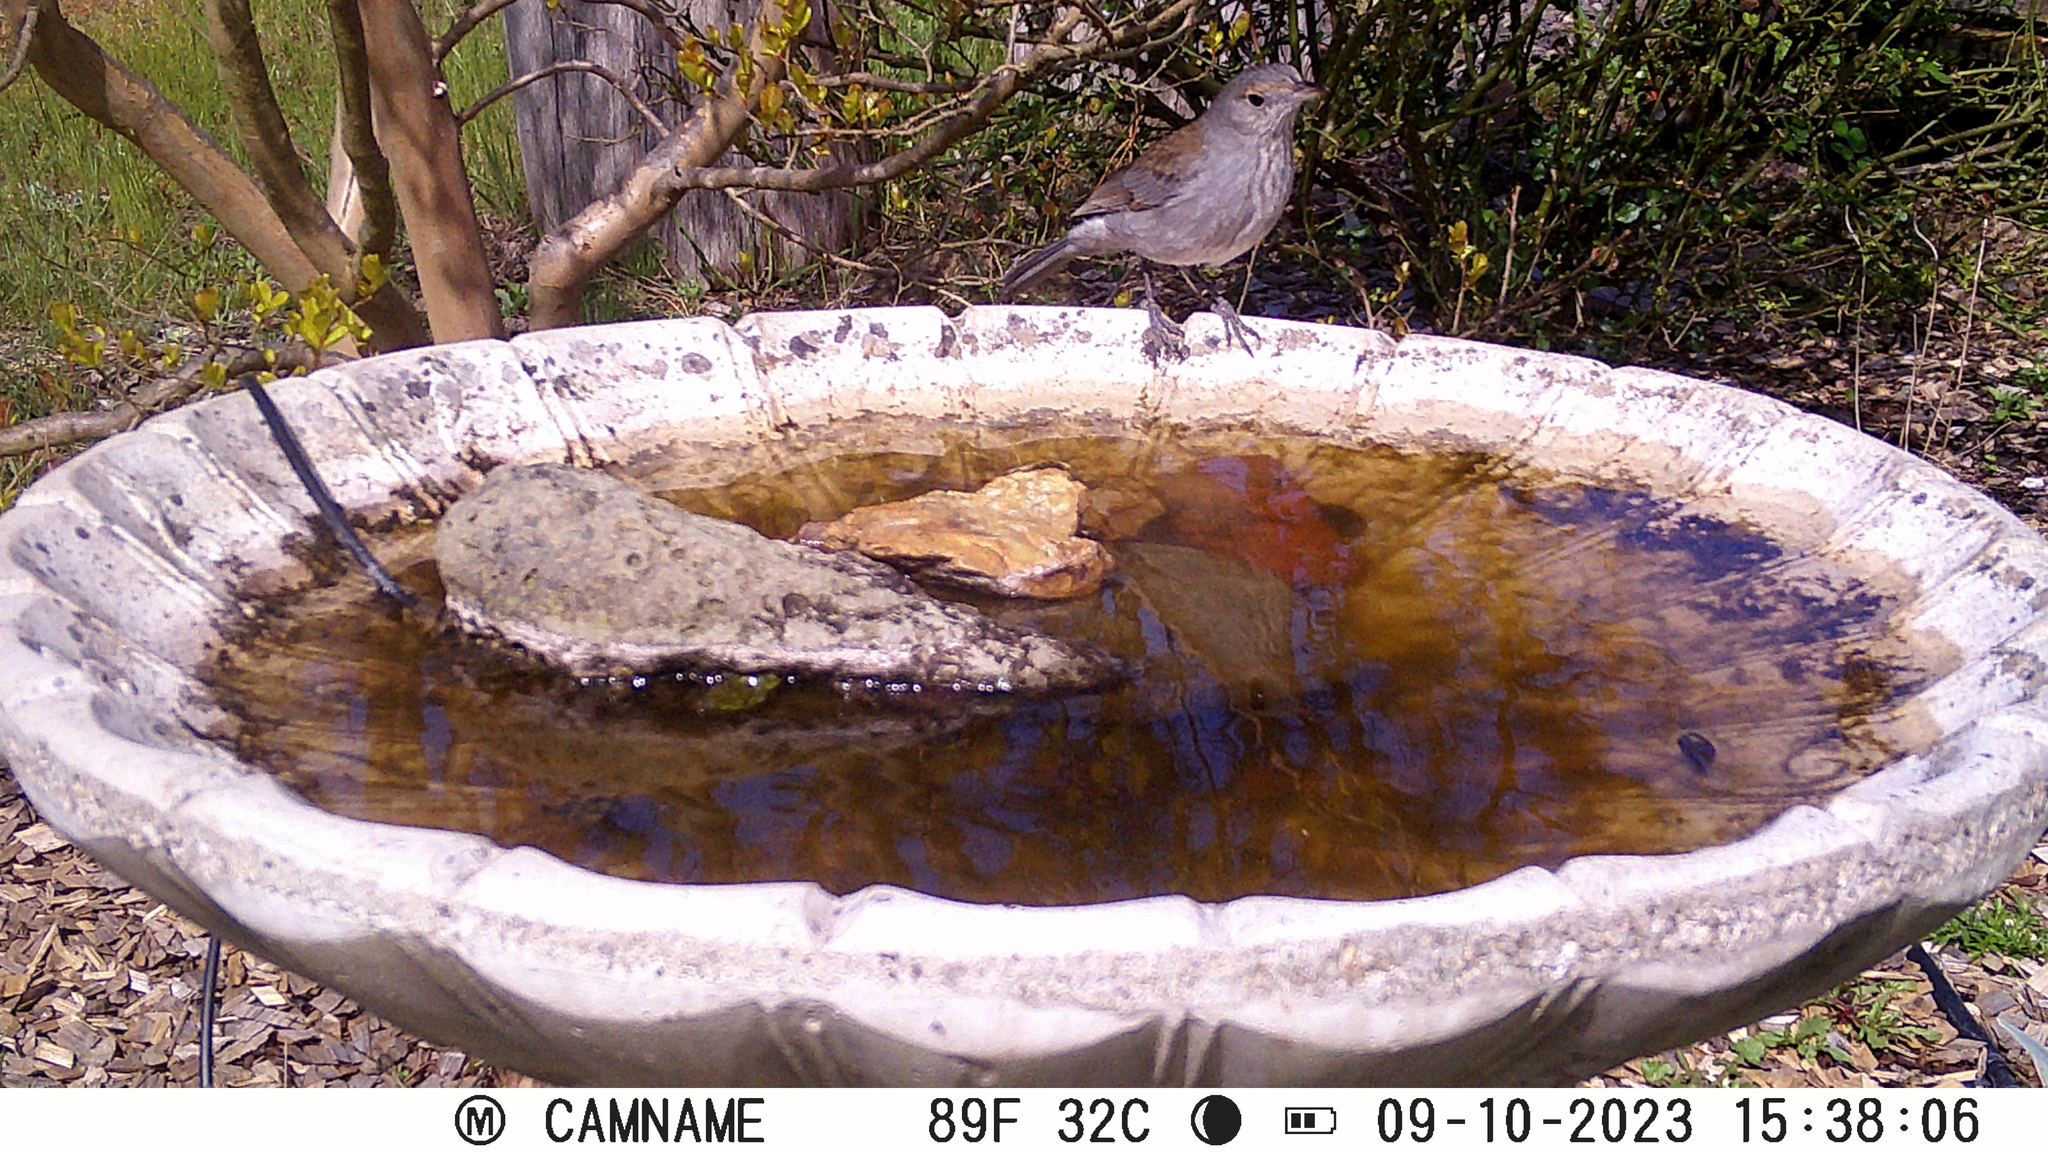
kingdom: Animalia
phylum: Chordata
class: Aves
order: Passeriformes
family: Pachycephalidae
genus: Colluricincla
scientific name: Colluricincla harmonica
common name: Grey shrikethrush
